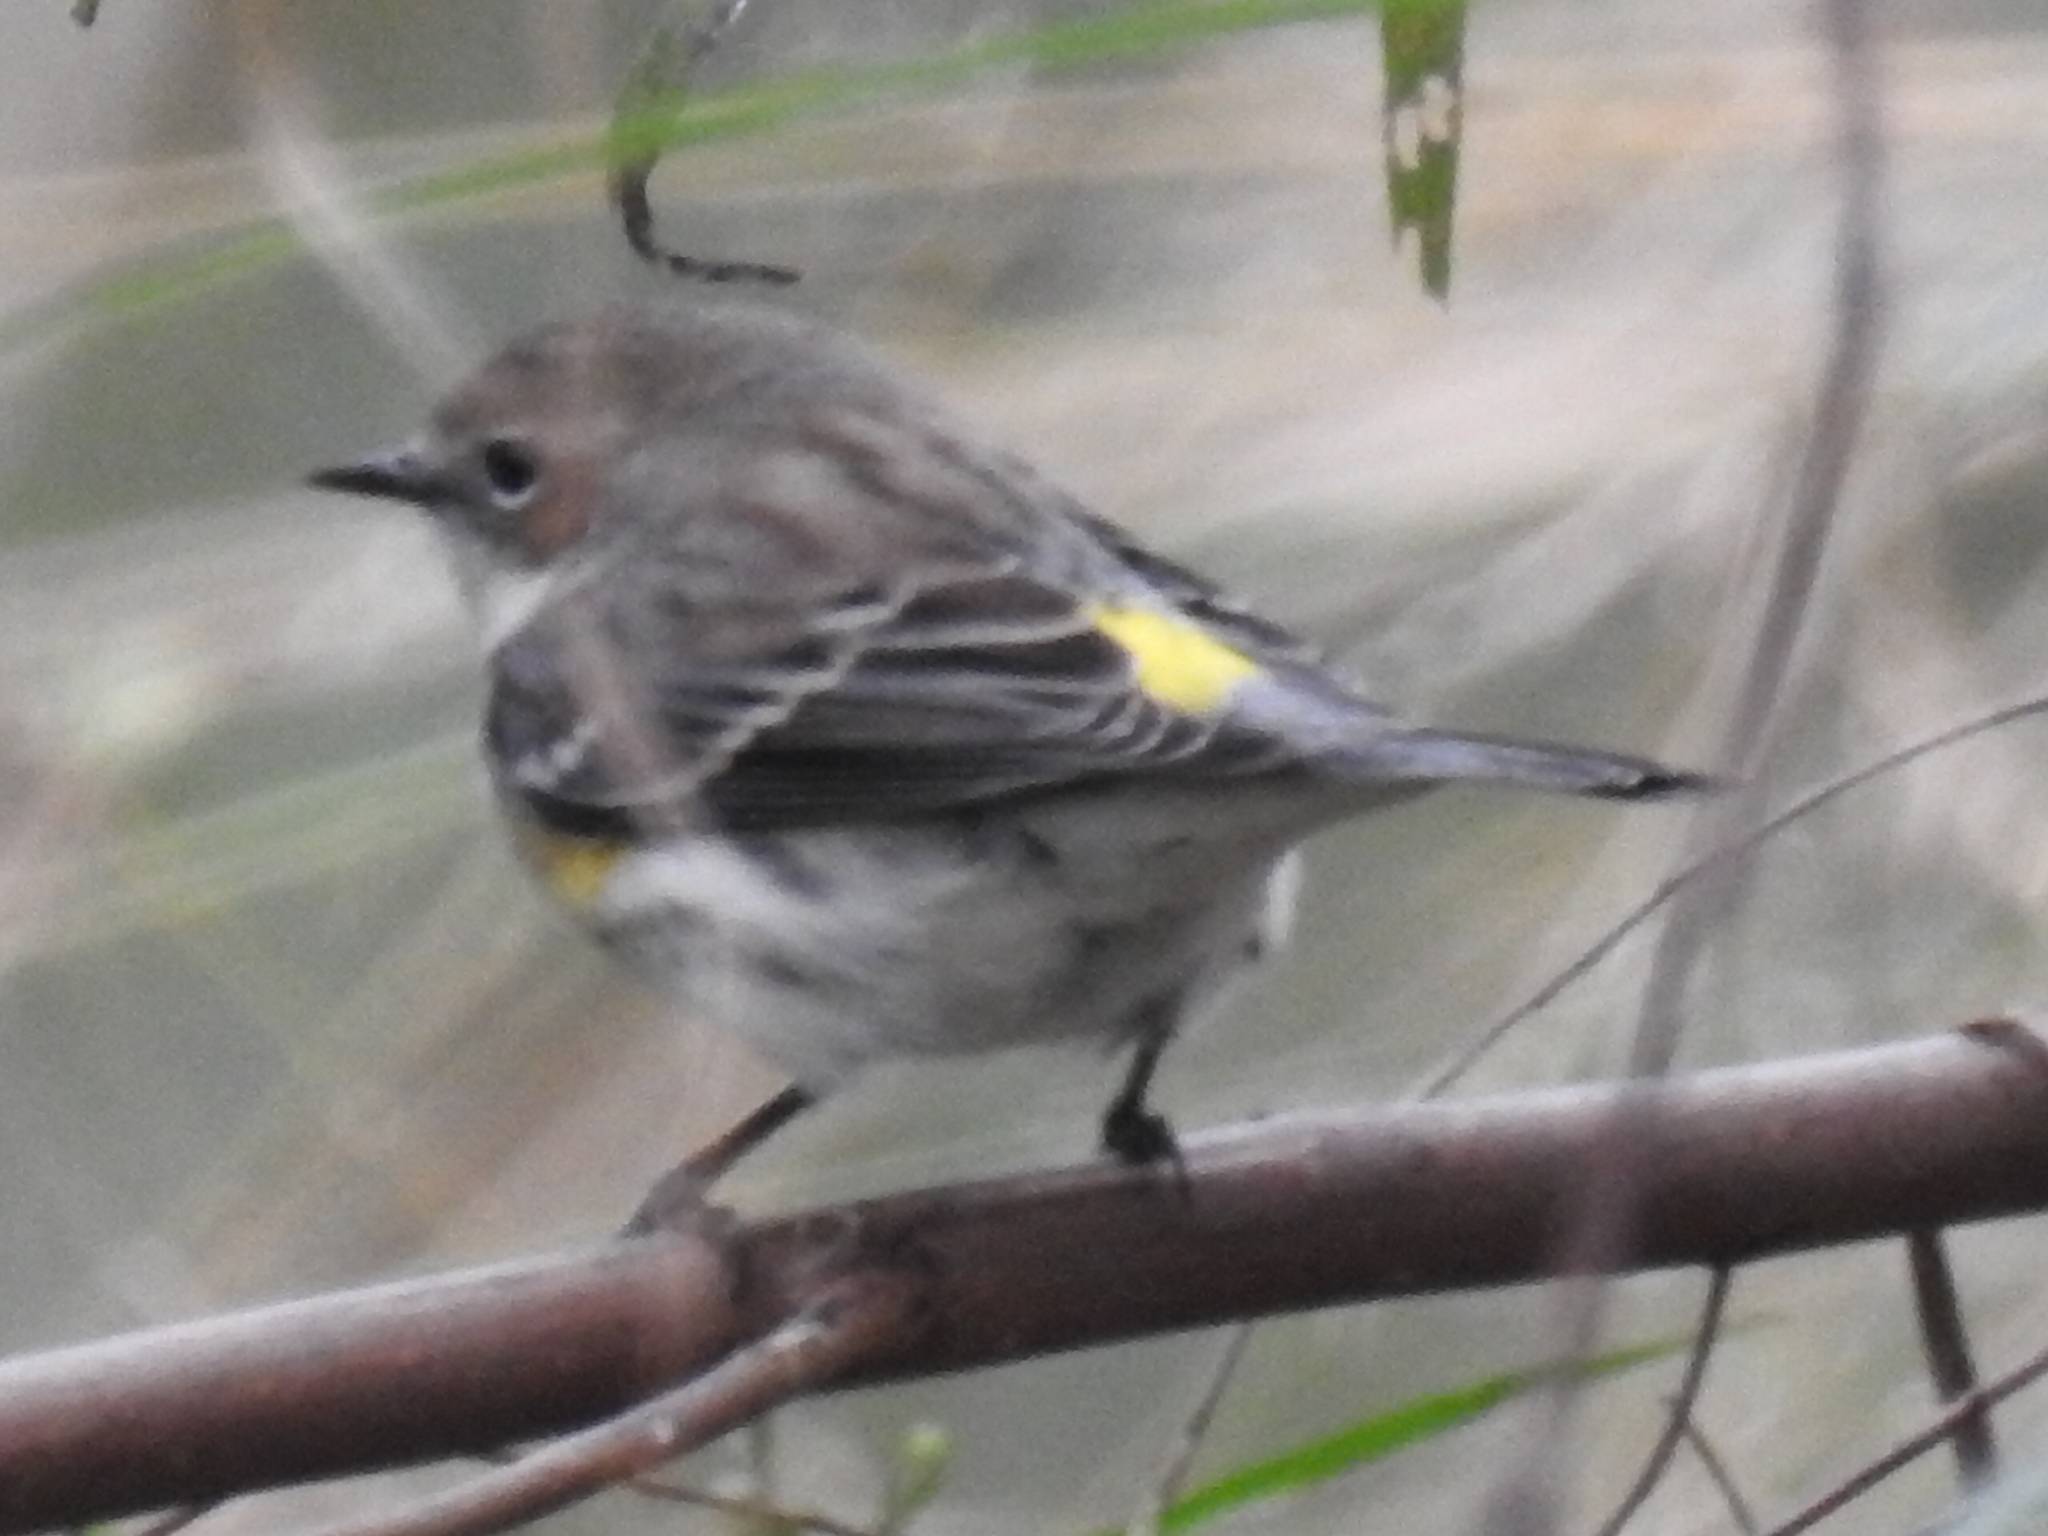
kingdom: Animalia
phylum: Chordata
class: Aves
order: Passeriformes
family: Parulidae
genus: Setophaga
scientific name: Setophaga coronata
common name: Myrtle warbler
